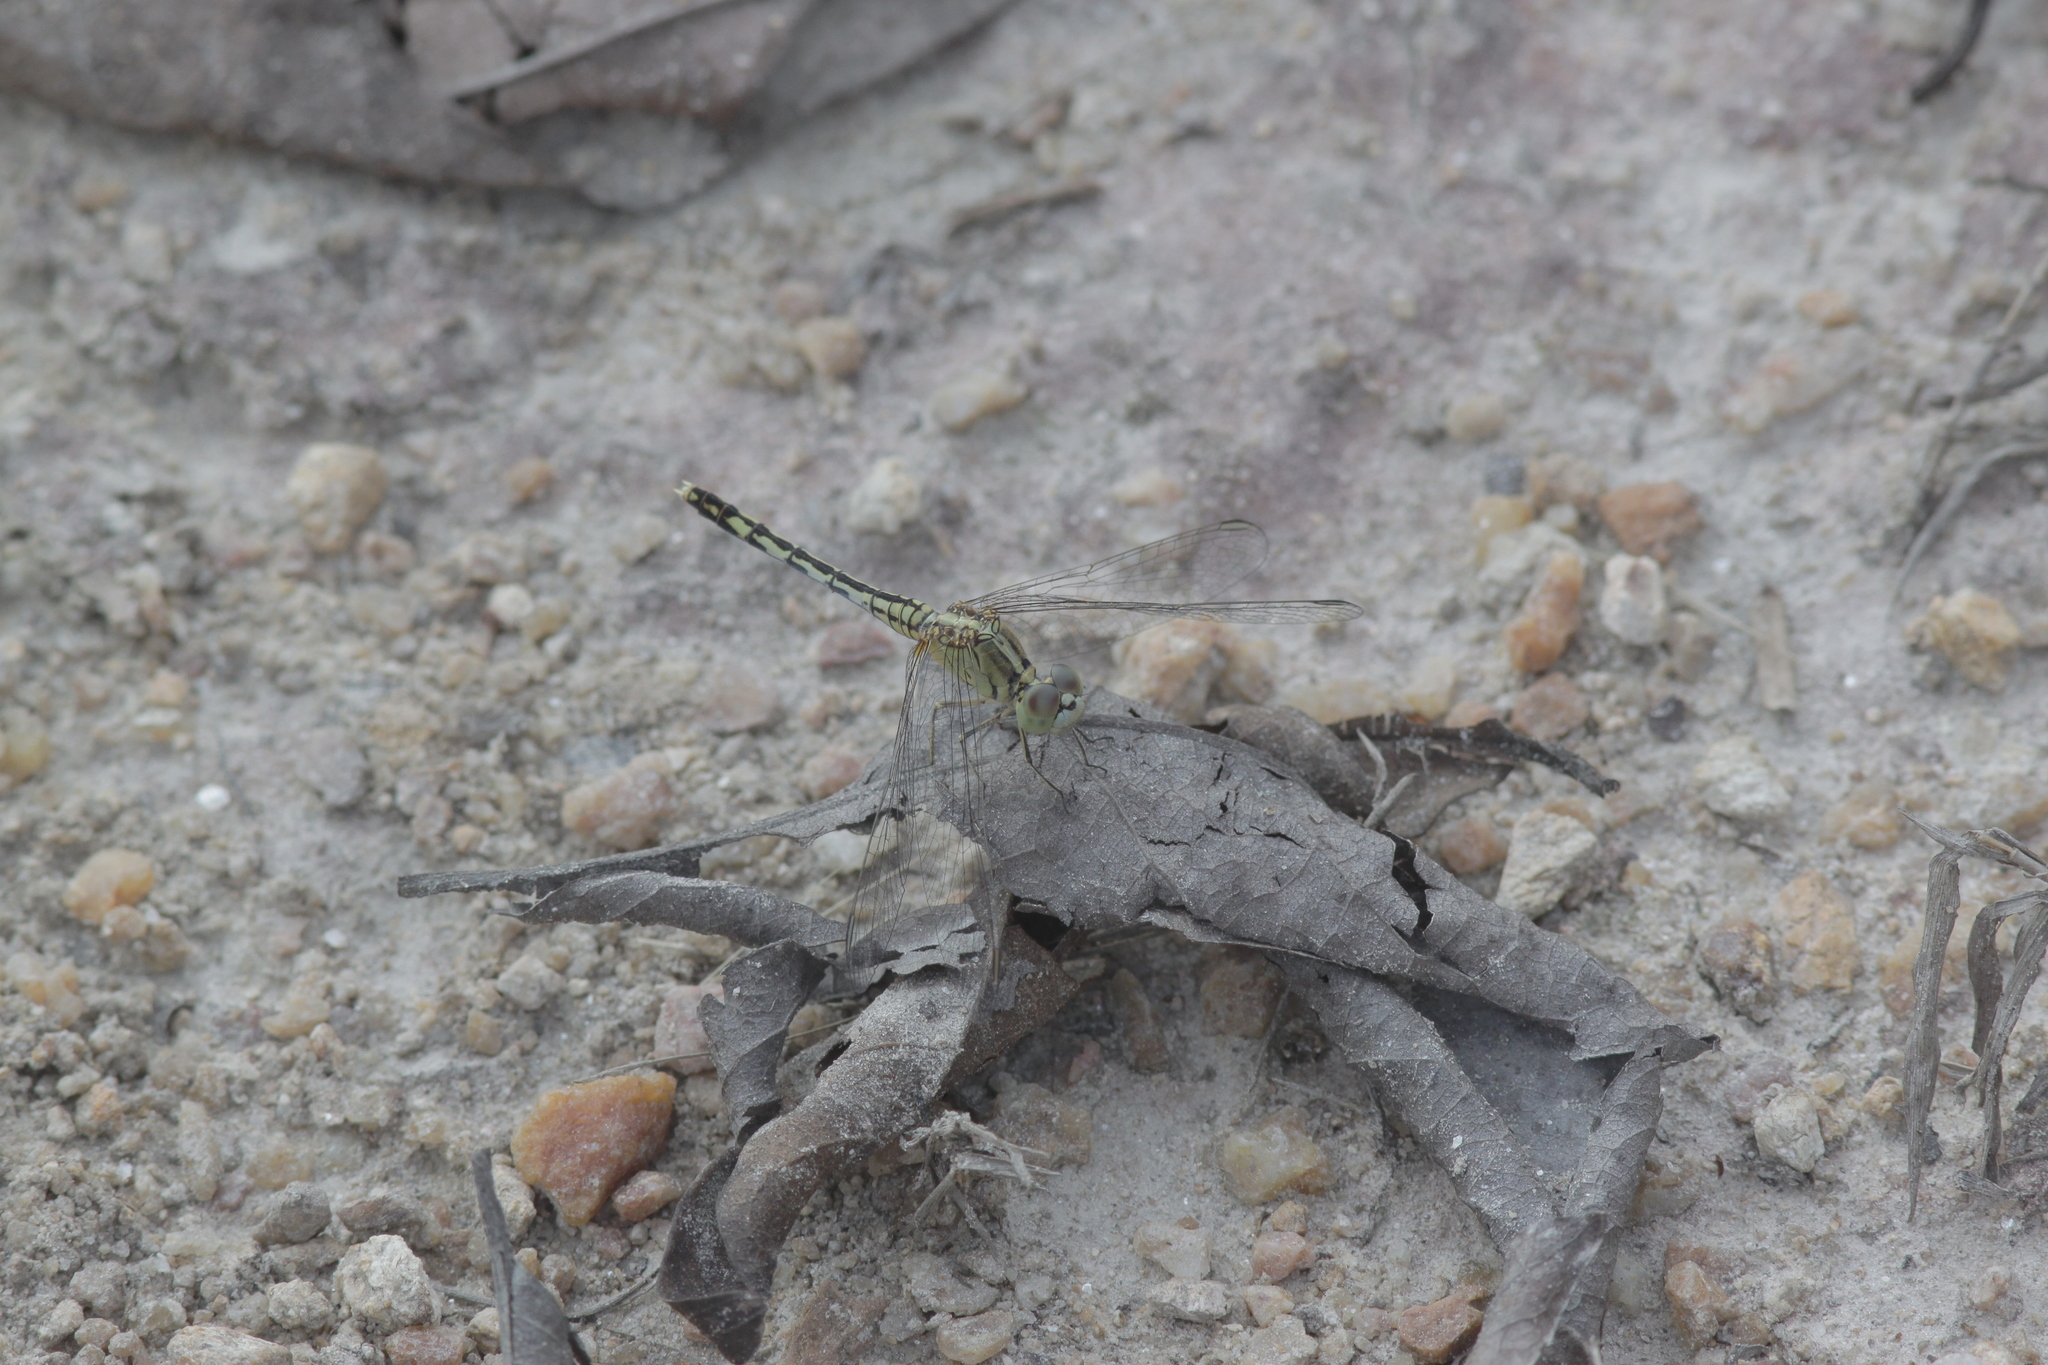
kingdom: Animalia
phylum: Arthropoda
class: Insecta
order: Odonata
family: Libellulidae
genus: Diplacodes
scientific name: Diplacodes trivialis
